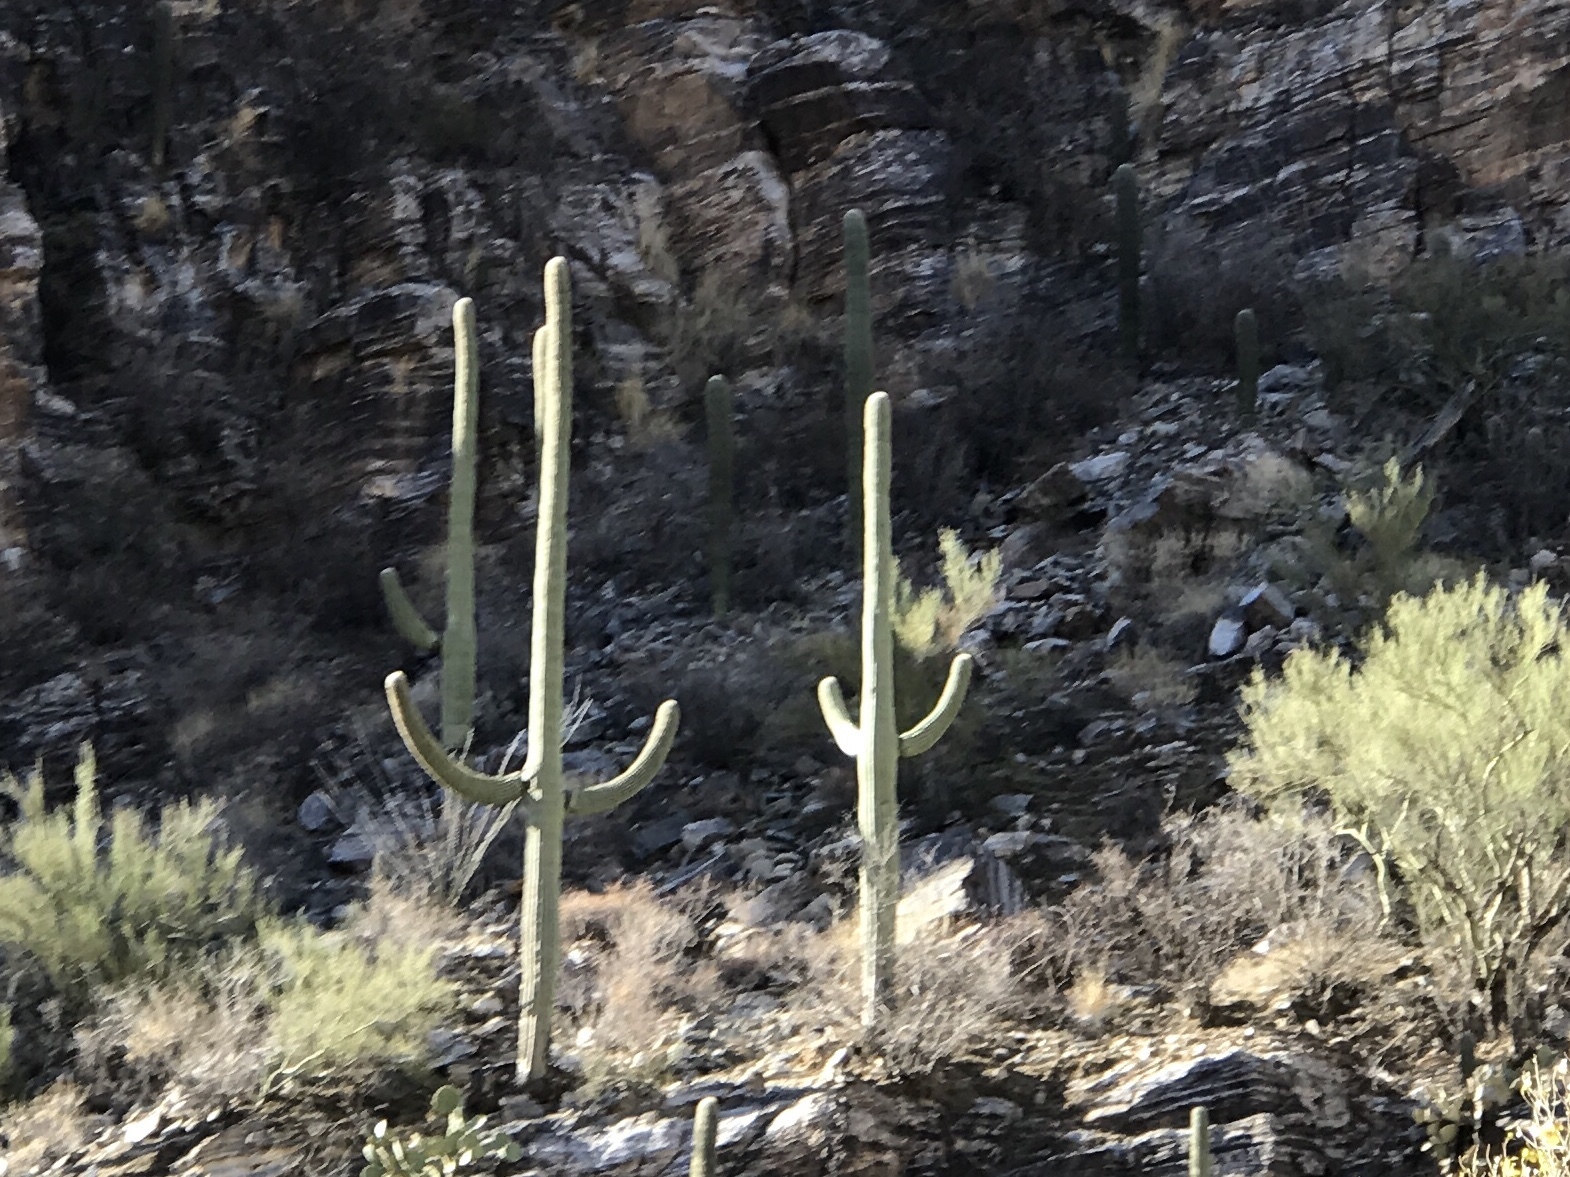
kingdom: Plantae
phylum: Tracheophyta
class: Magnoliopsida
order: Caryophyllales
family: Cactaceae
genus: Carnegiea
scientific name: Carnegiea gigantea
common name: Saguaro
